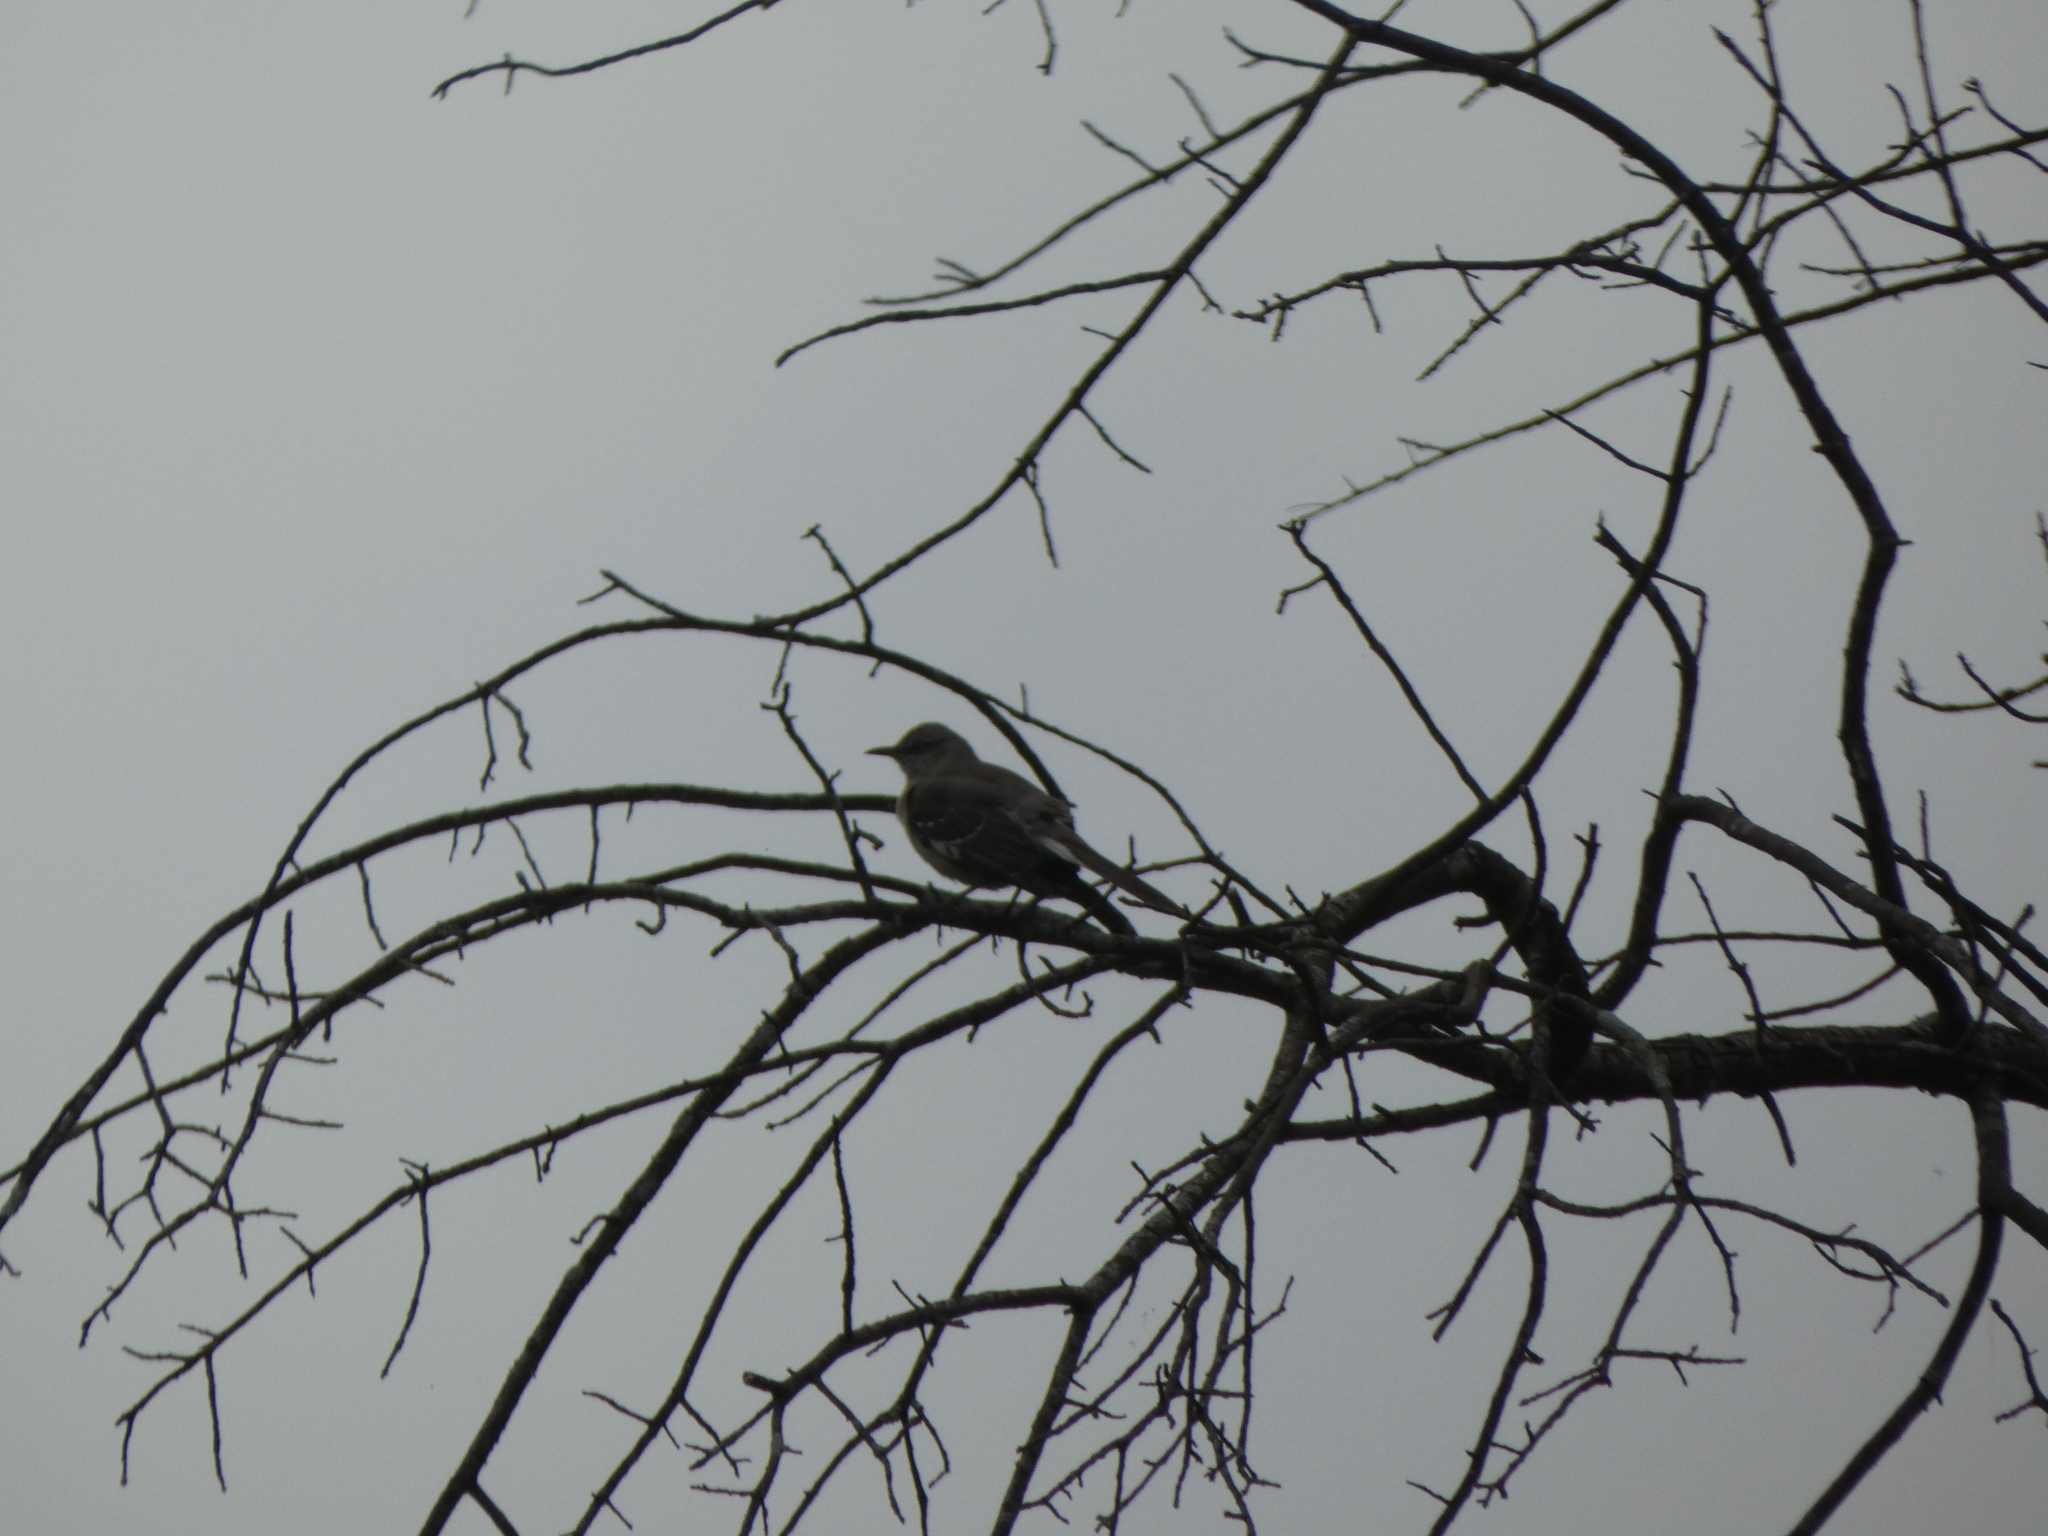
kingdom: Animalia
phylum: Chordata
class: Aves
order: Passeriformes
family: Mimidae
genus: Mimus
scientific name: Mimus polyglottos
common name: Northern mockingbird
